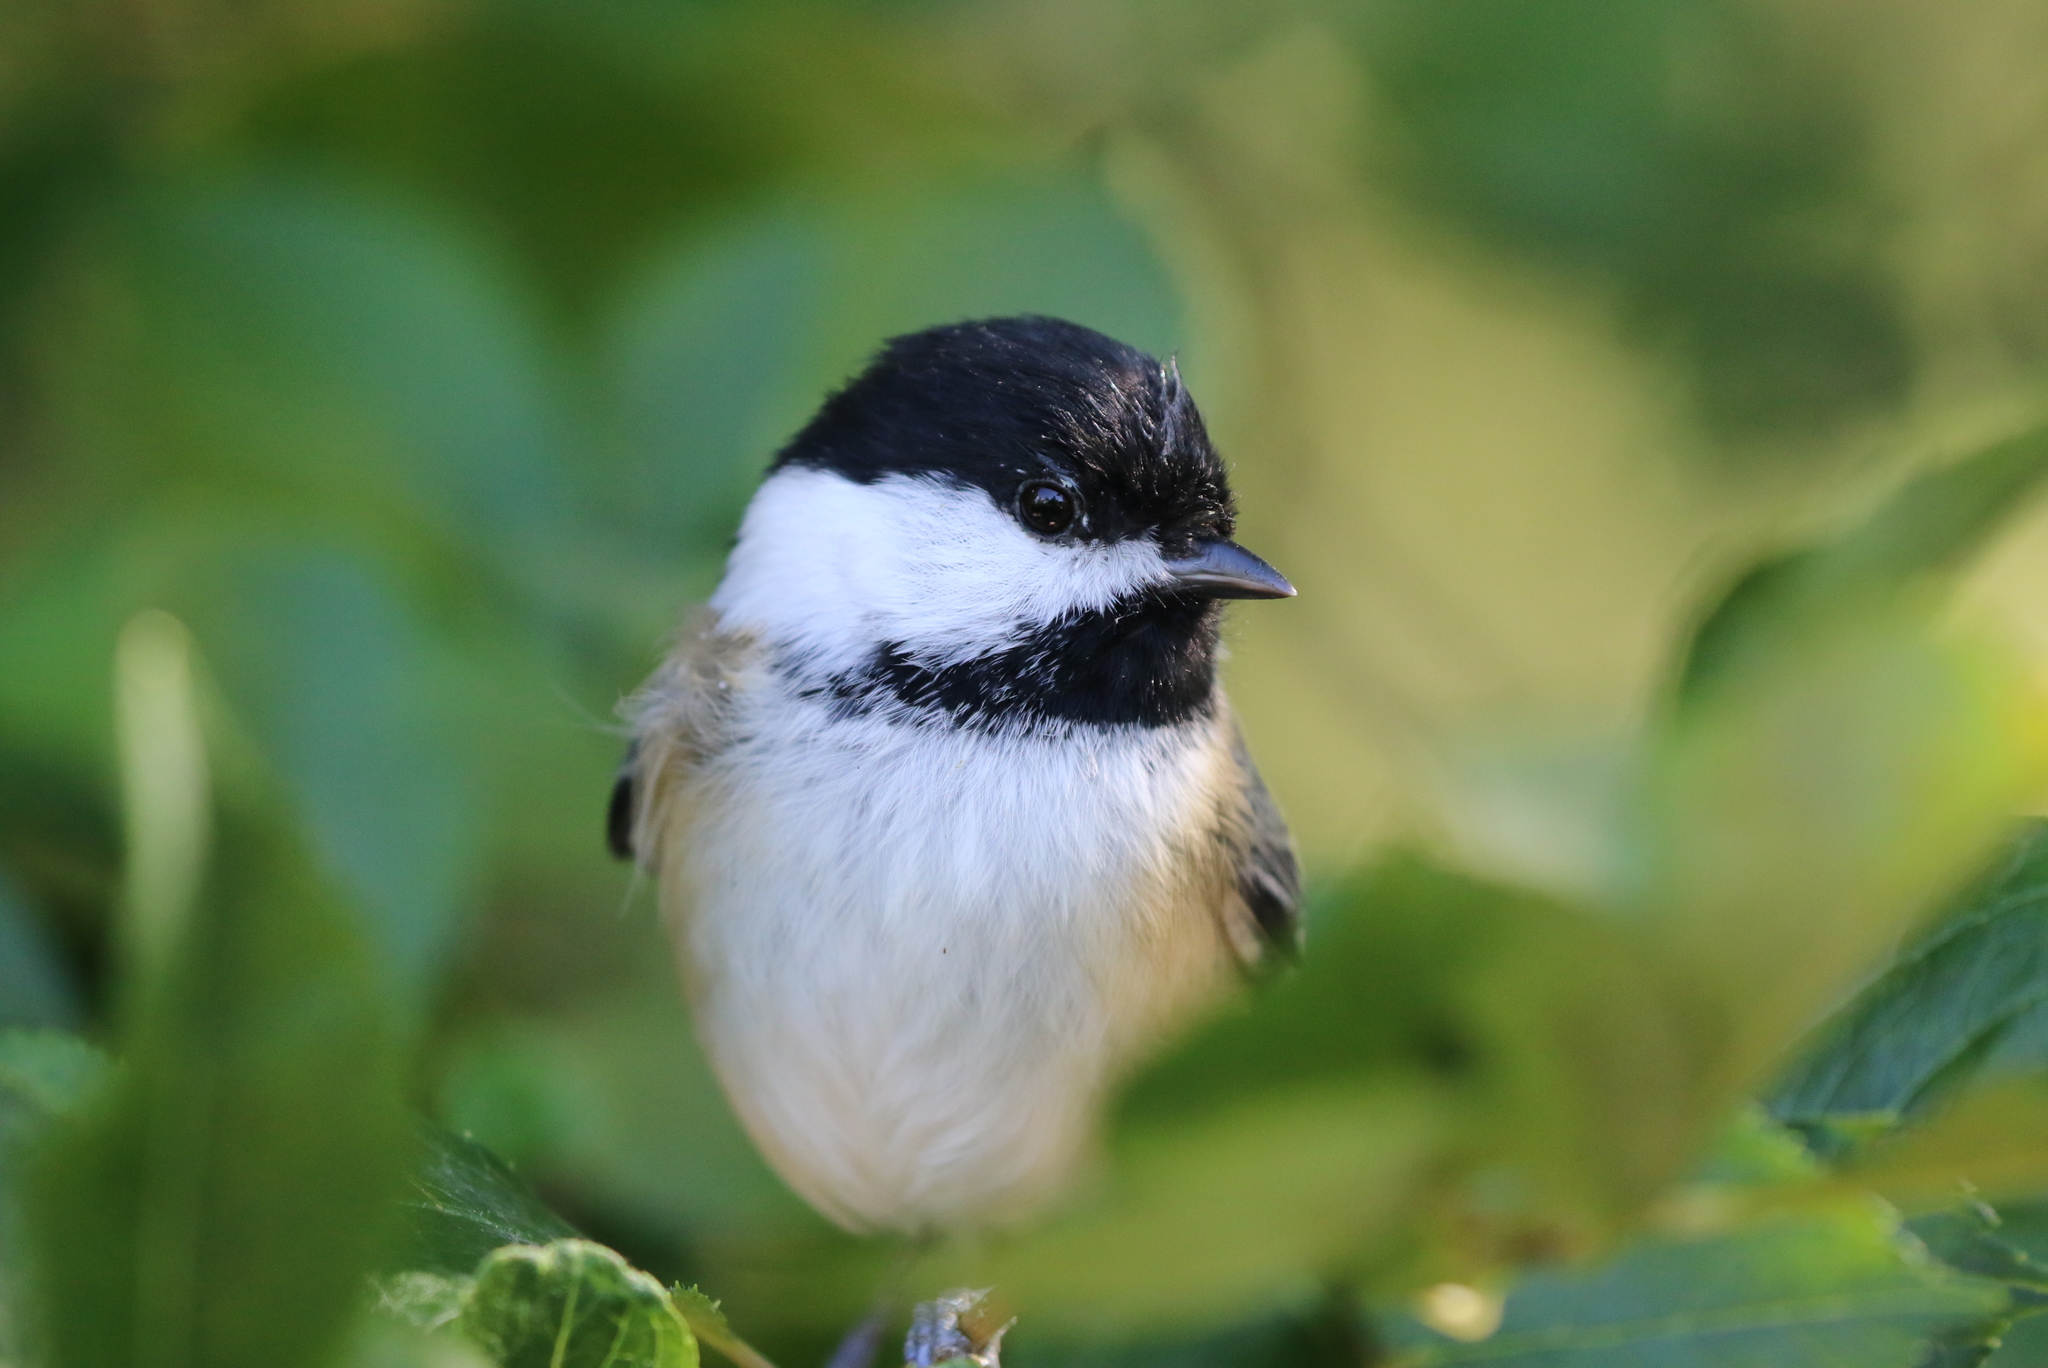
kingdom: Animalia
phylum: Chordata
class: Aves
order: Passeriformes
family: Paridae
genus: Poecile
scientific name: Poecile atricapillus
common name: Black-capped chickadee
